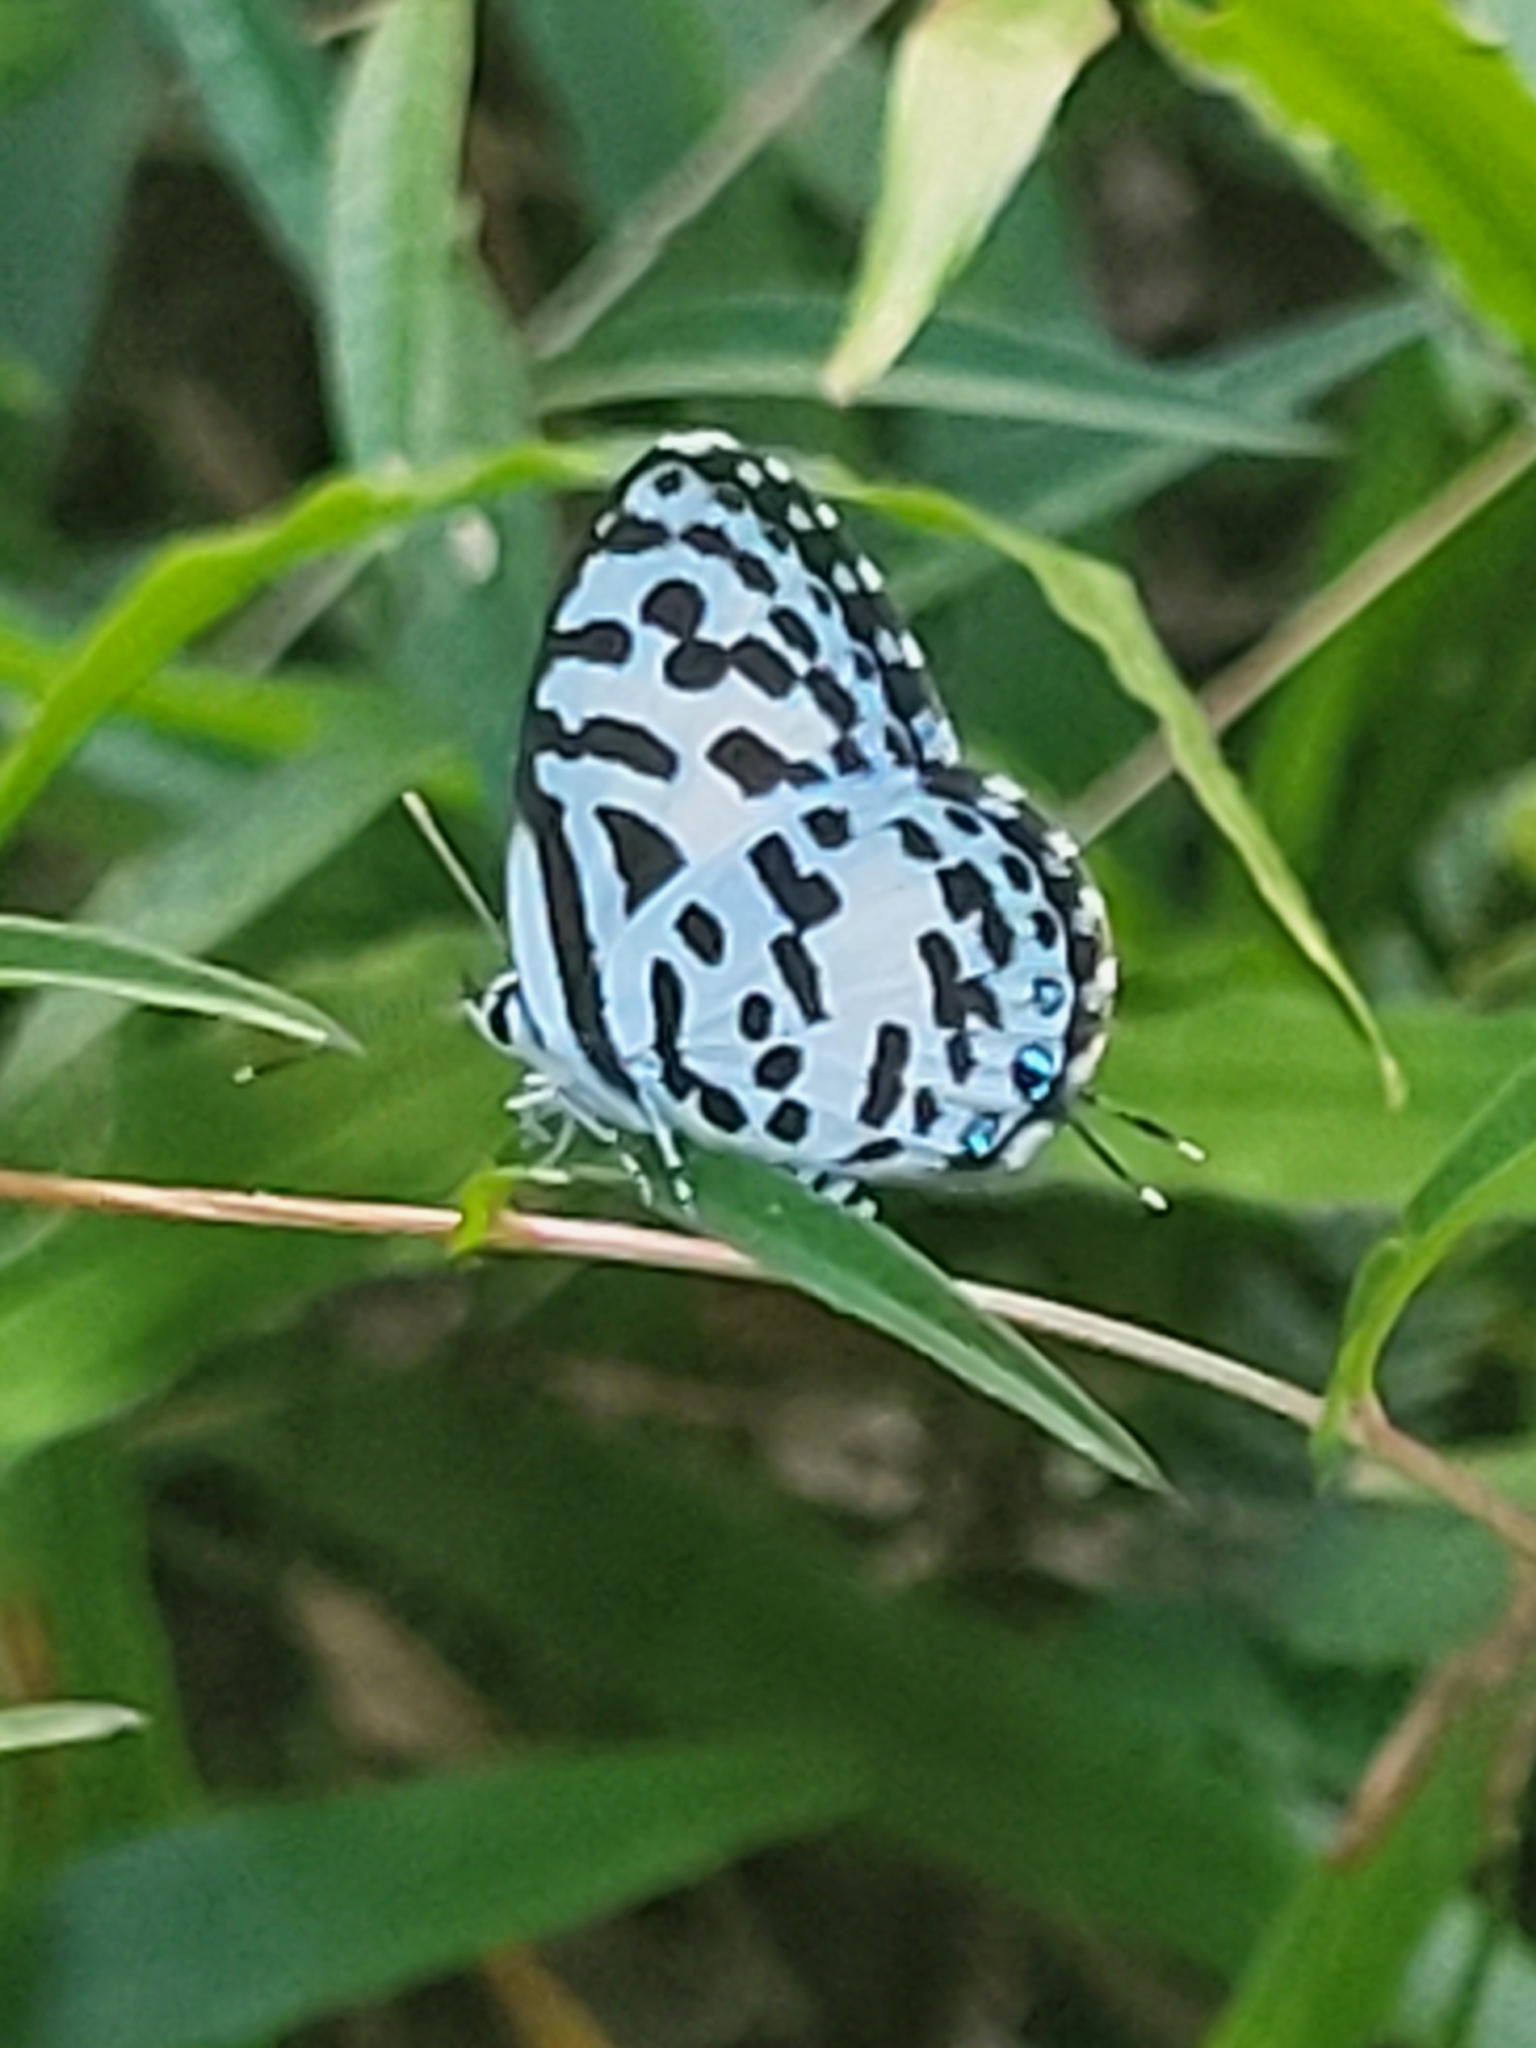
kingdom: Animalia
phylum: Arthropoda
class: Insecta
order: Lepidoptera
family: Lycaenidae
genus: Castalius
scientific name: Castalius rosimon
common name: Common pierrot
